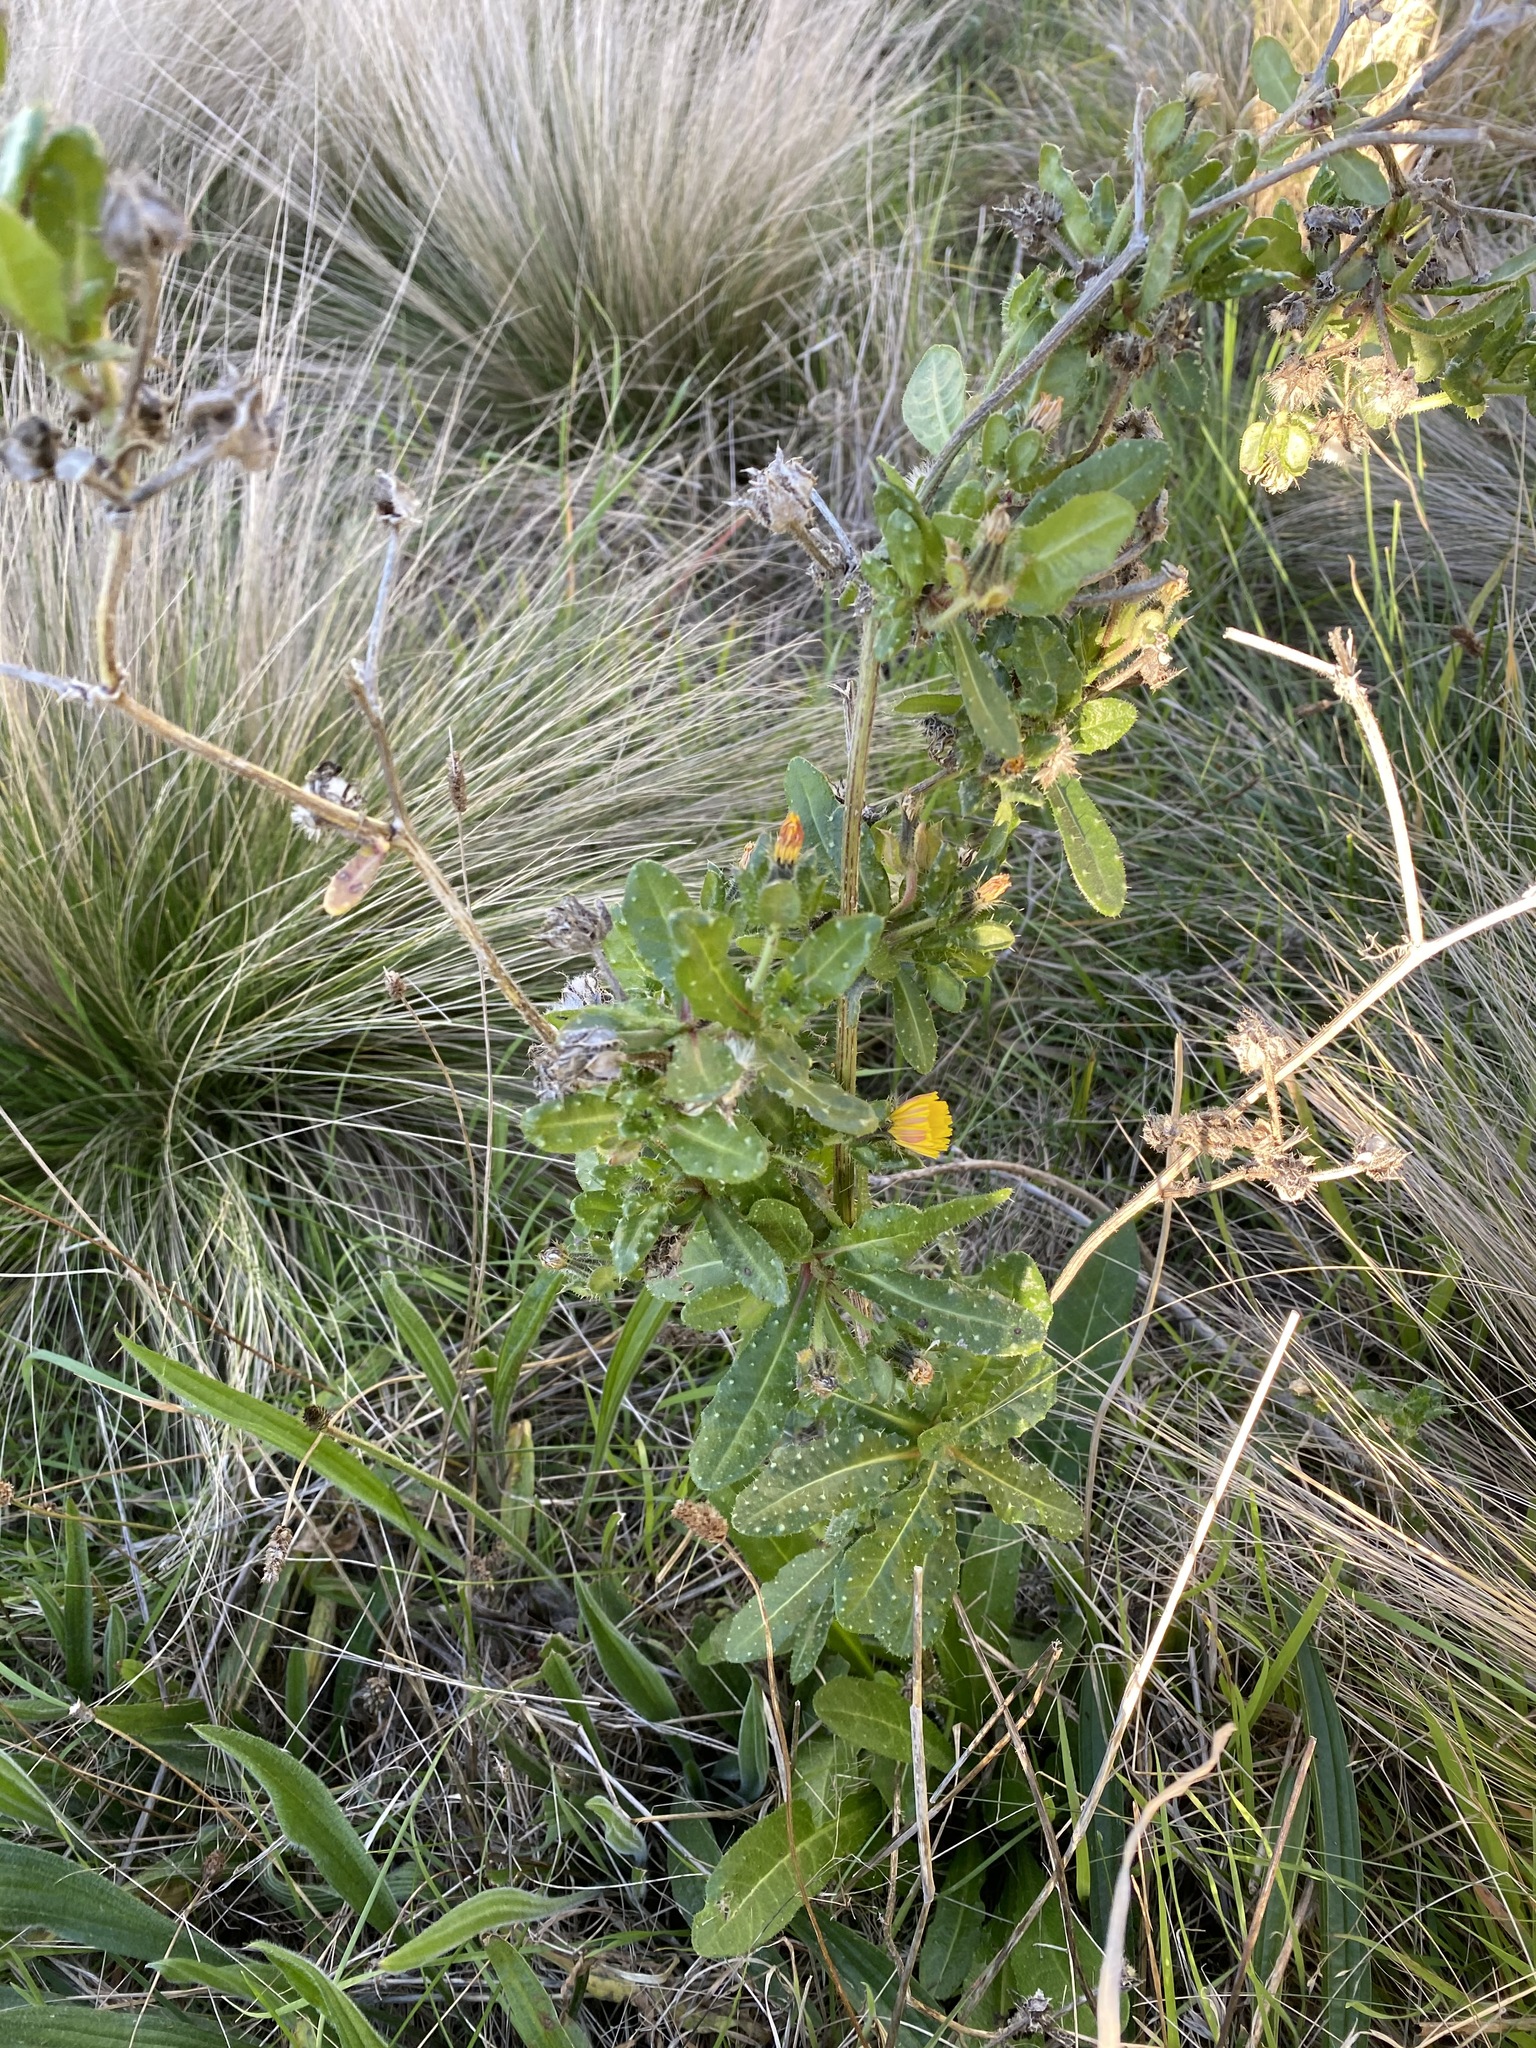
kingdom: Plantae
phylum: Tracheophyta
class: Magnoliopsida
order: Asterales
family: Asteraceae
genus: Helminthotheca
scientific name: Helminthotheca echioides
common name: Ox-tongue
